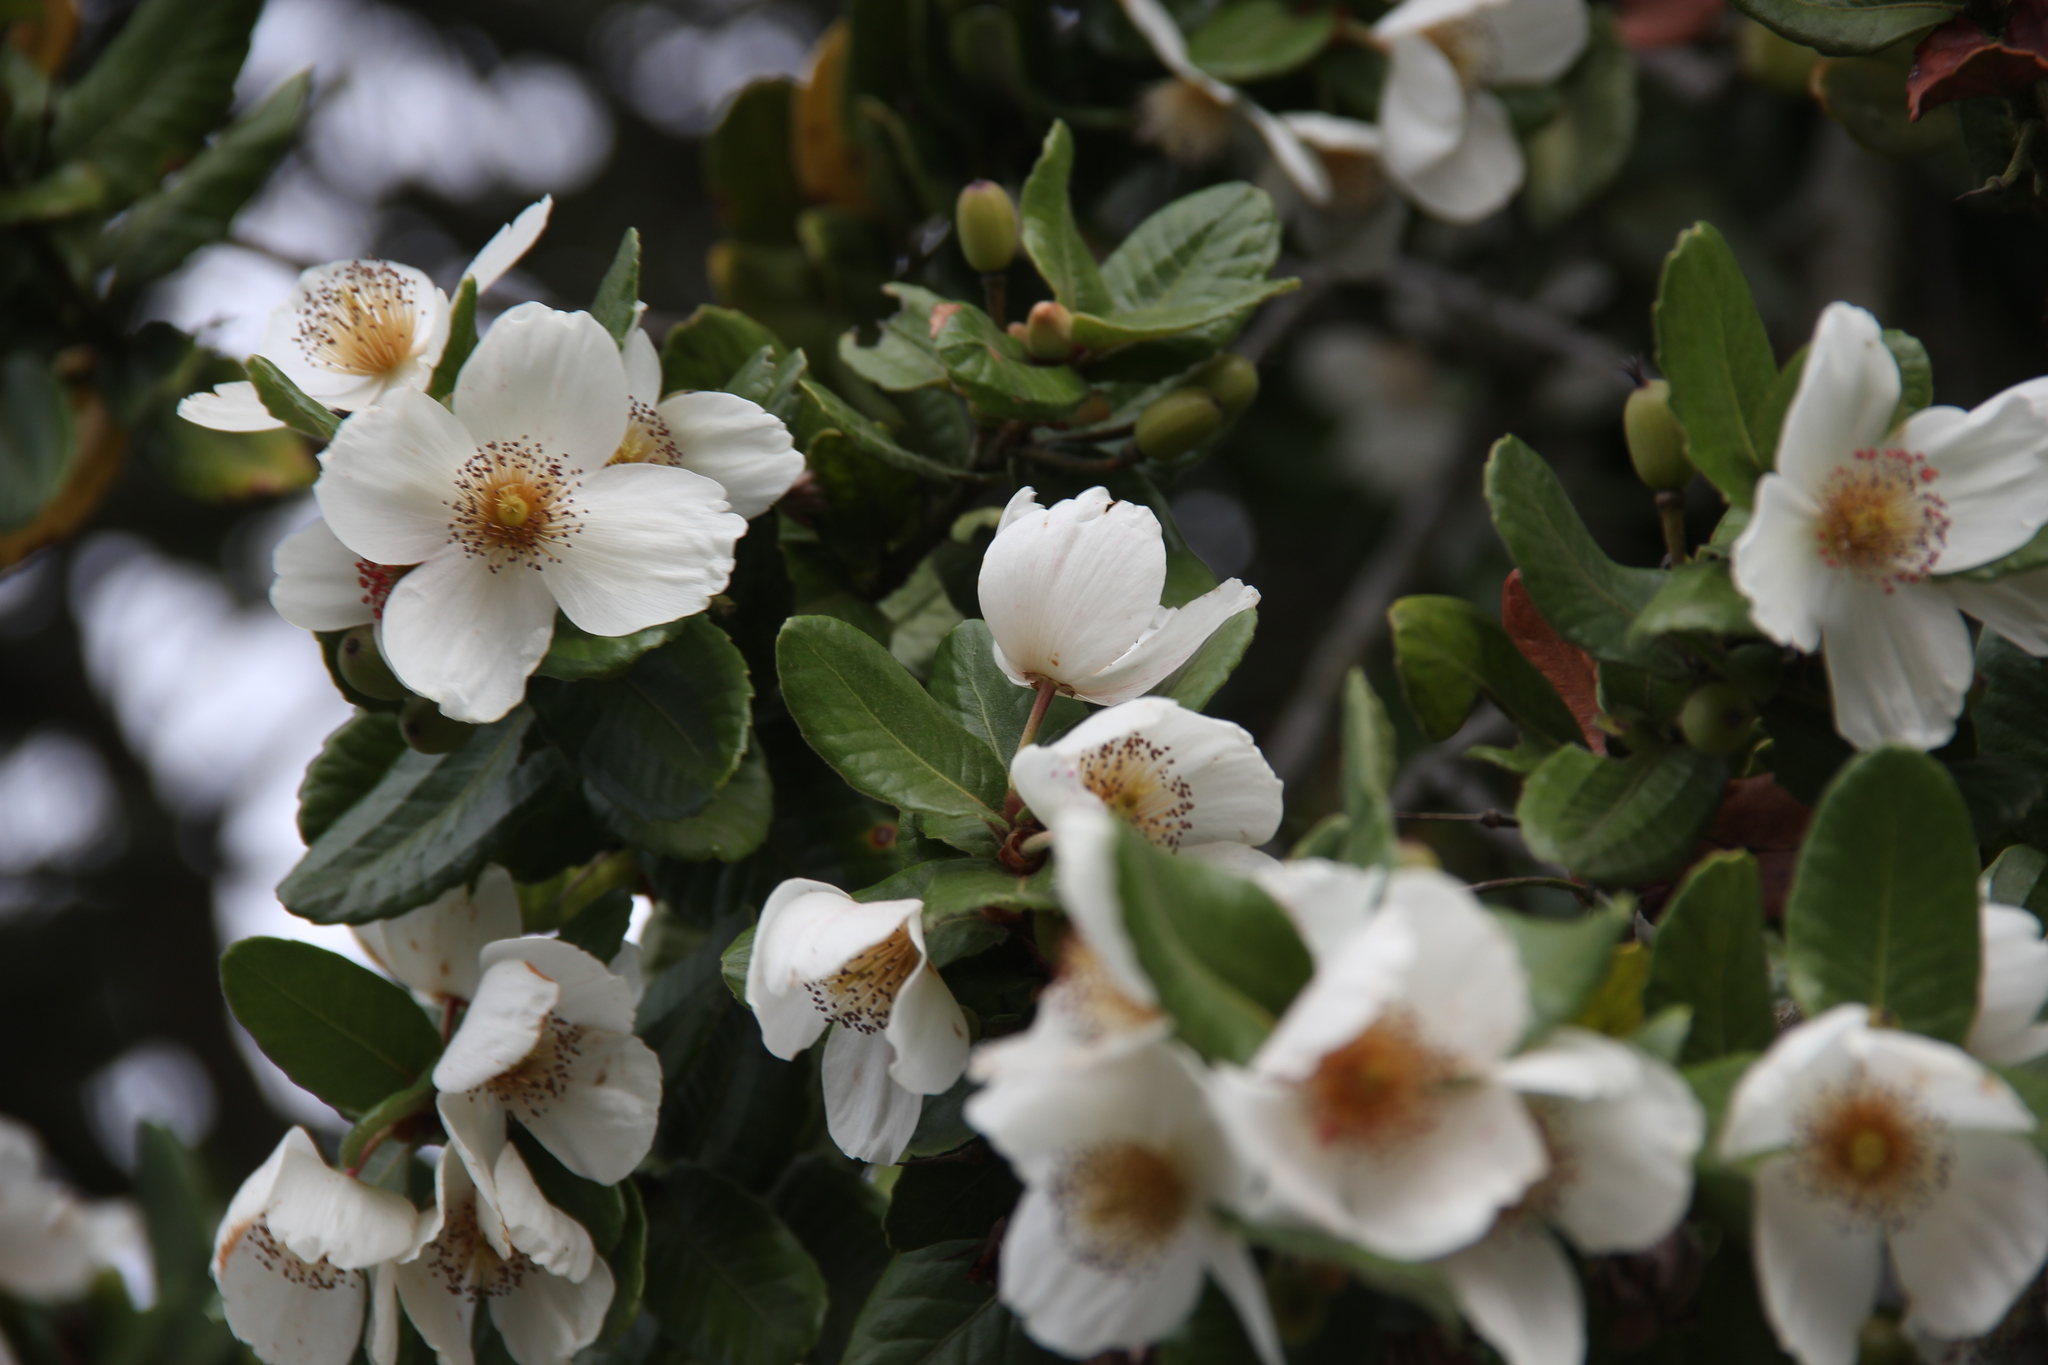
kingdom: Plantae
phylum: Tracheophyta
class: Magnoliopsida
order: Oxalidales
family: Cunoniaceae
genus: Eucryphia
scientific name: Eucryphia cordifolia
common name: Ulmo
